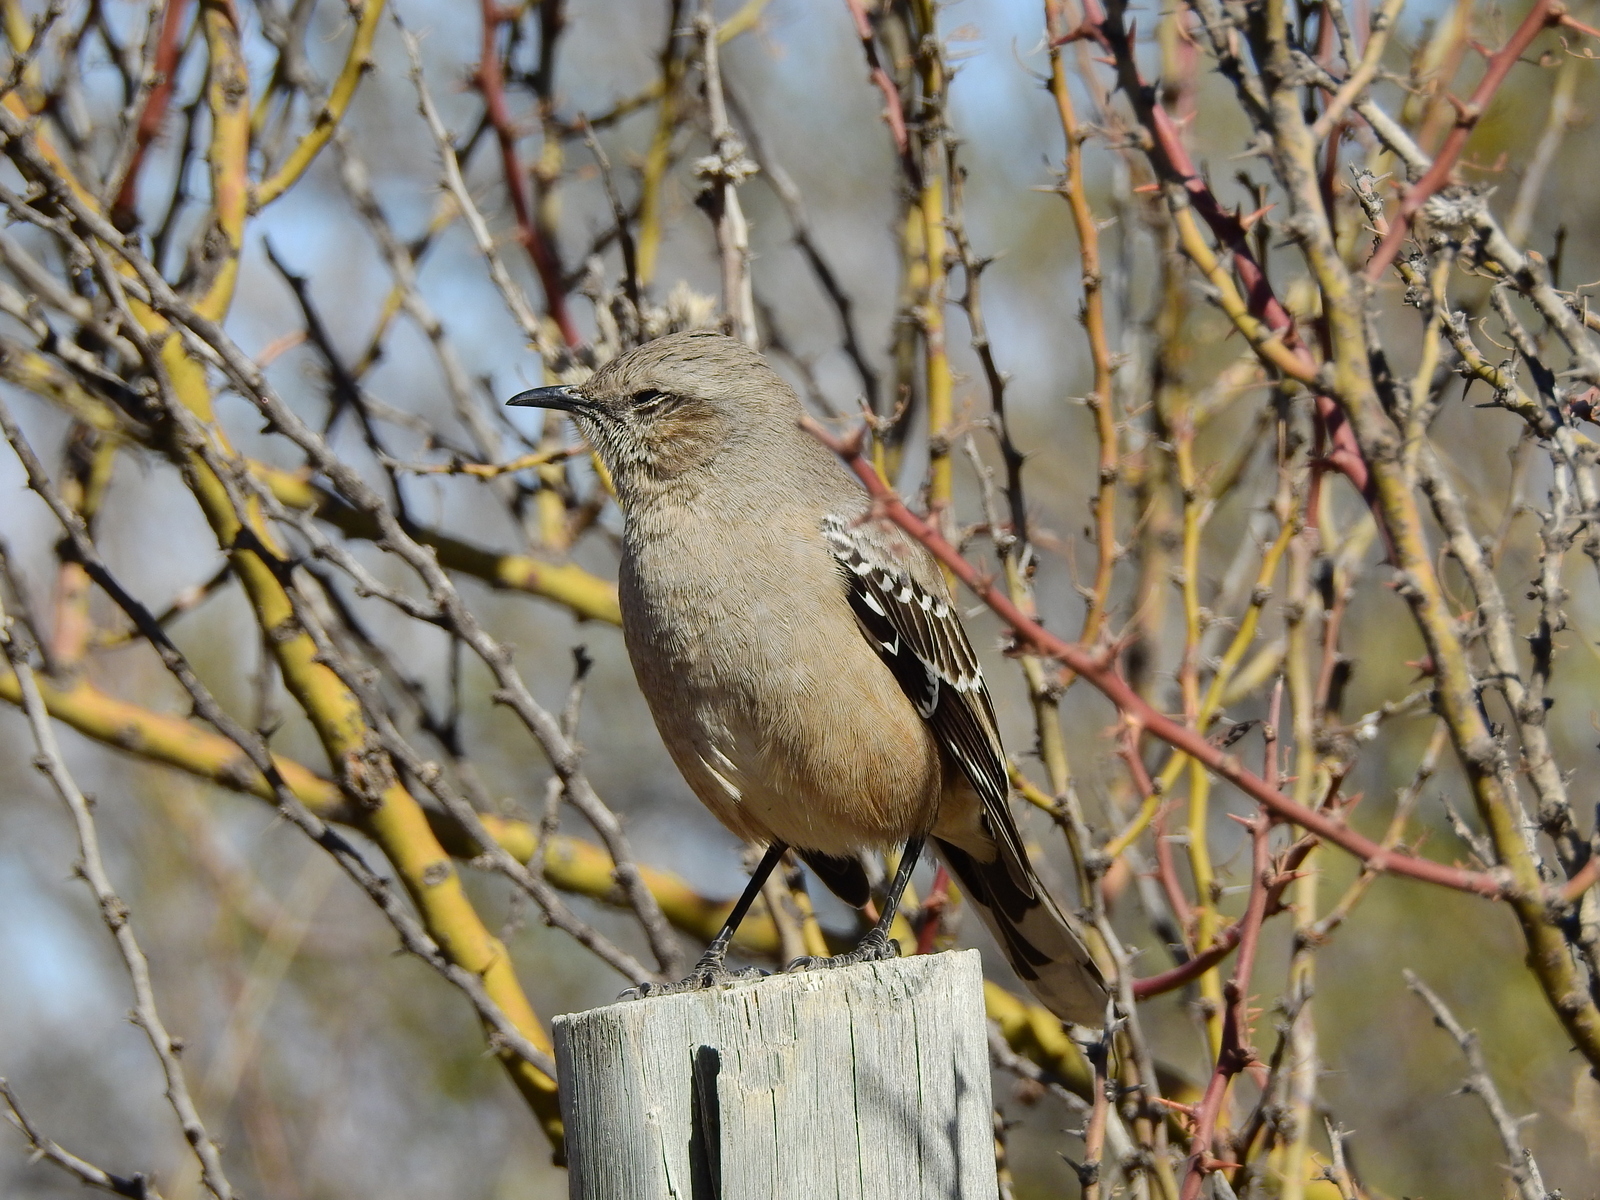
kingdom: Animalia
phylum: Chordata
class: Aves
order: Passeriformes
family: Mimidae
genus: Mimus
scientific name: Mimus patagonicus
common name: Patagonian mockingbird
